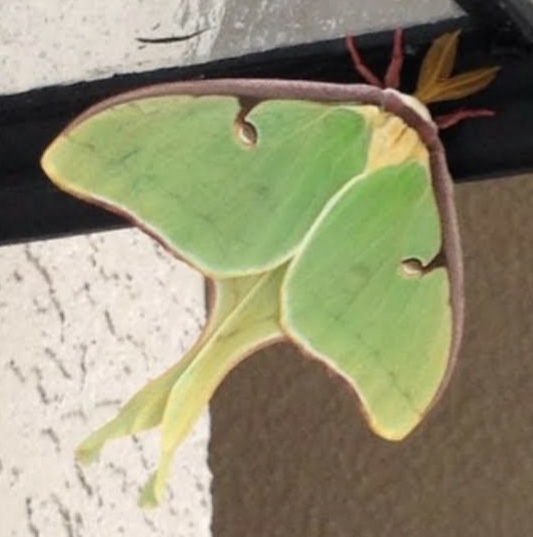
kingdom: Animalia
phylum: Arthropoda
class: Insecta
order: Lepidoptera
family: Saturniidae
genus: Actias
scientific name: Actias luna
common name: Luna moth
